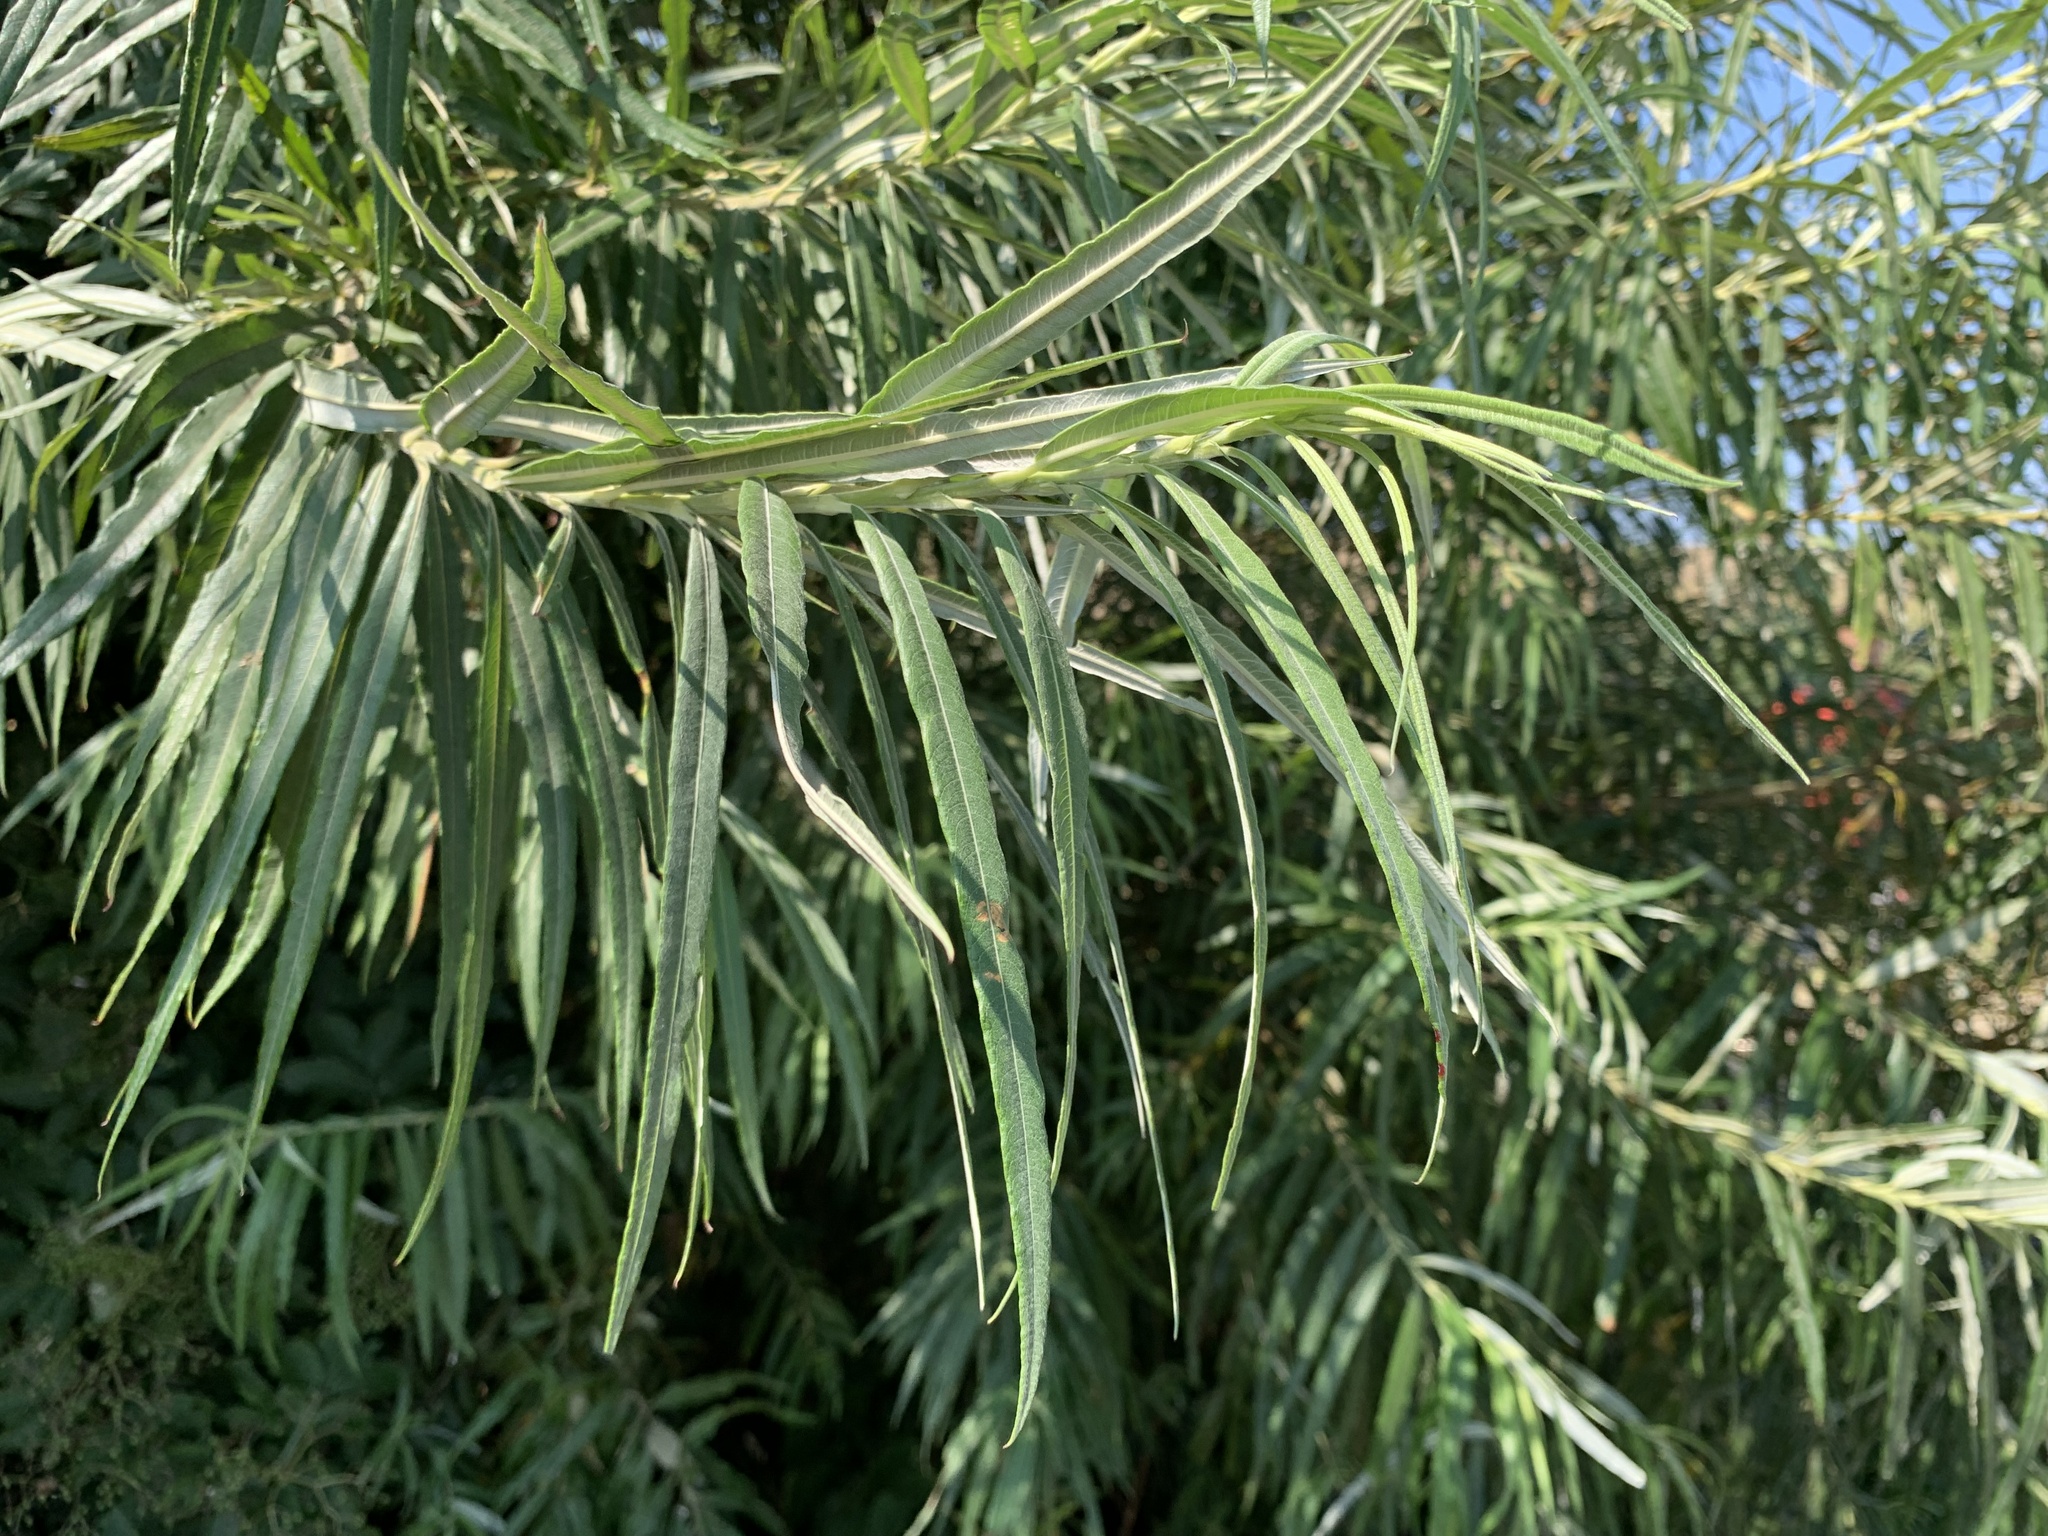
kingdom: Plantae
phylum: Tracheophyta
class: Magnoliopsida
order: Malpighiales
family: Salicaceae
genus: Salix
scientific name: Salix viminalis
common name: Osier
